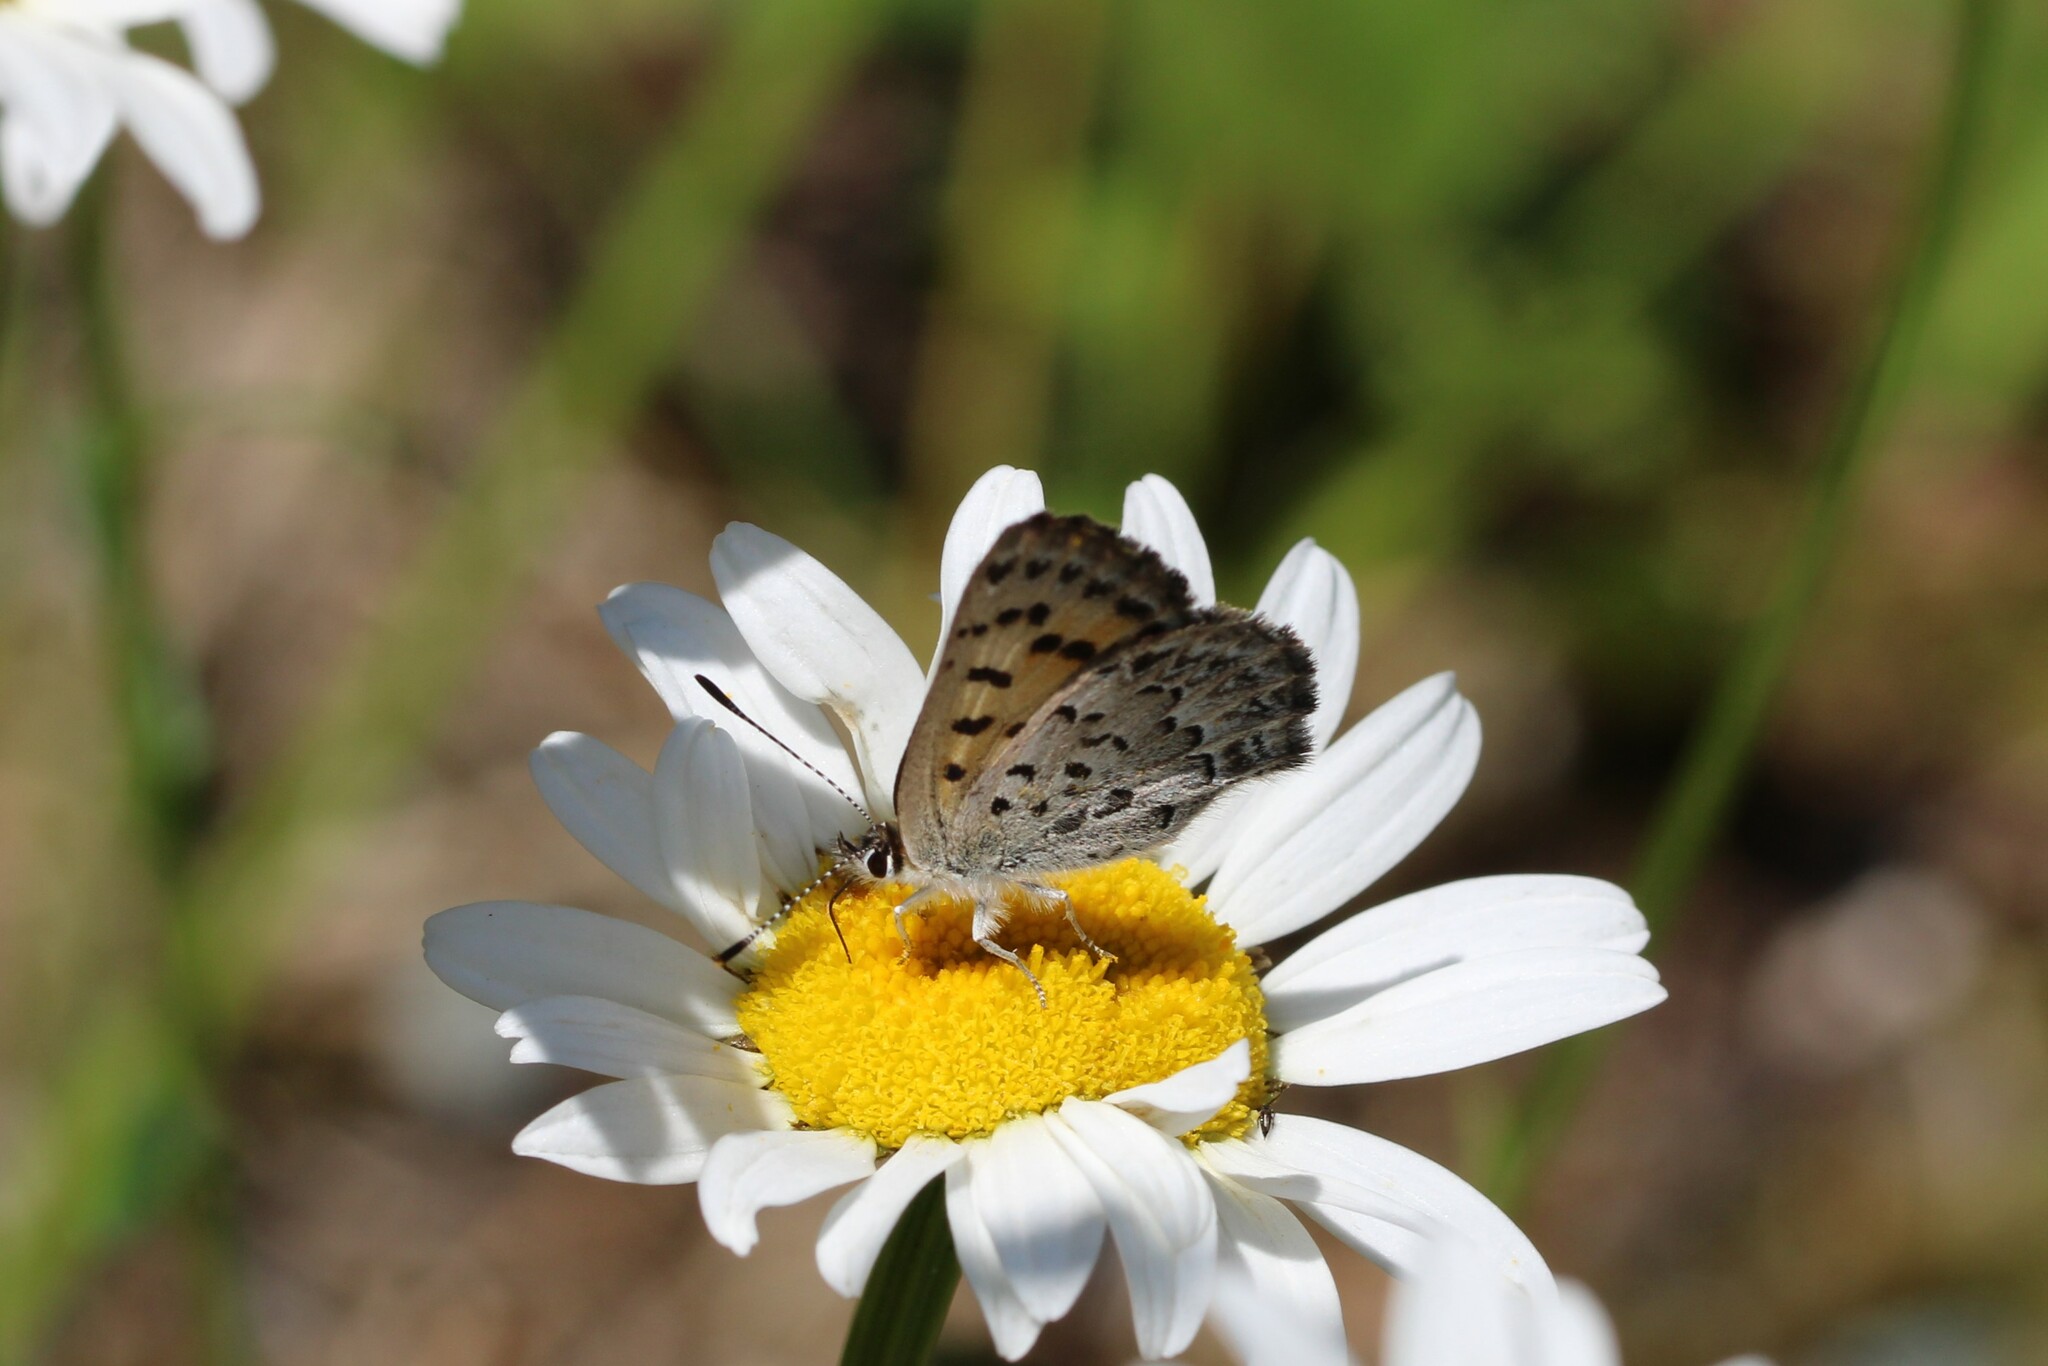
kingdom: Animalia
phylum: Arthropoda
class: Insecta
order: Lepidoptera
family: Lycaenidae
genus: Tharsalea
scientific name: Tharsalea mariposa
